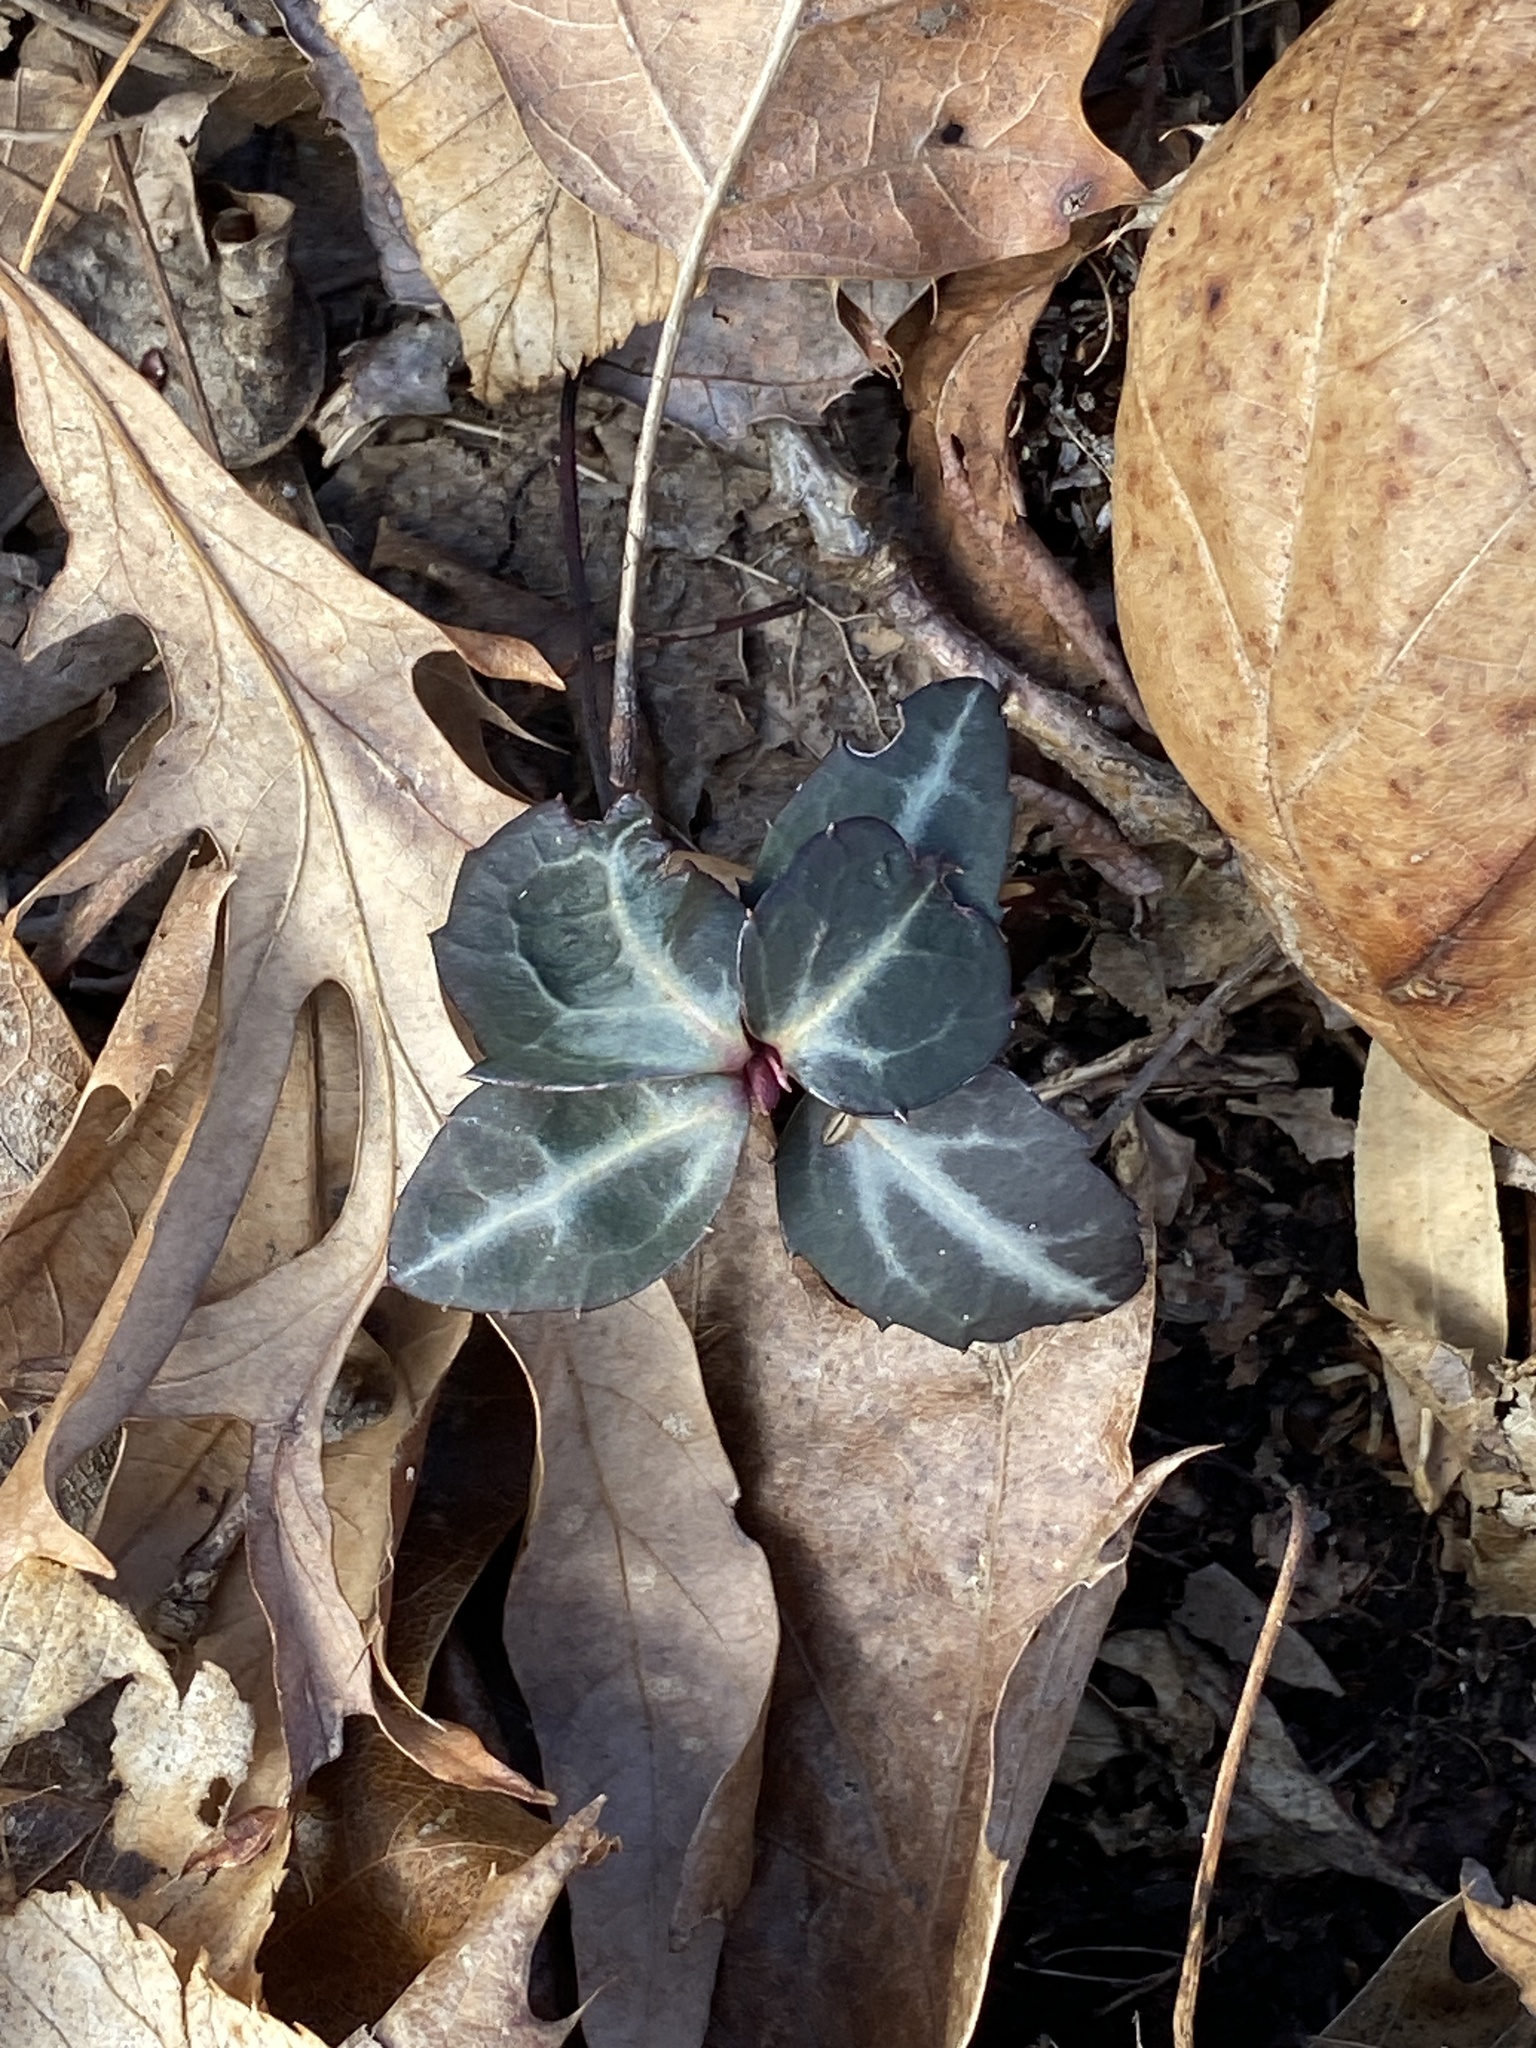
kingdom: Plantae
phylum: Tracheophyta
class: Magnoliopsida
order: Ericales
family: Ericaceae
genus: Chimaphila
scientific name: Chimaphila maculata
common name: Spotted pipsissewa
